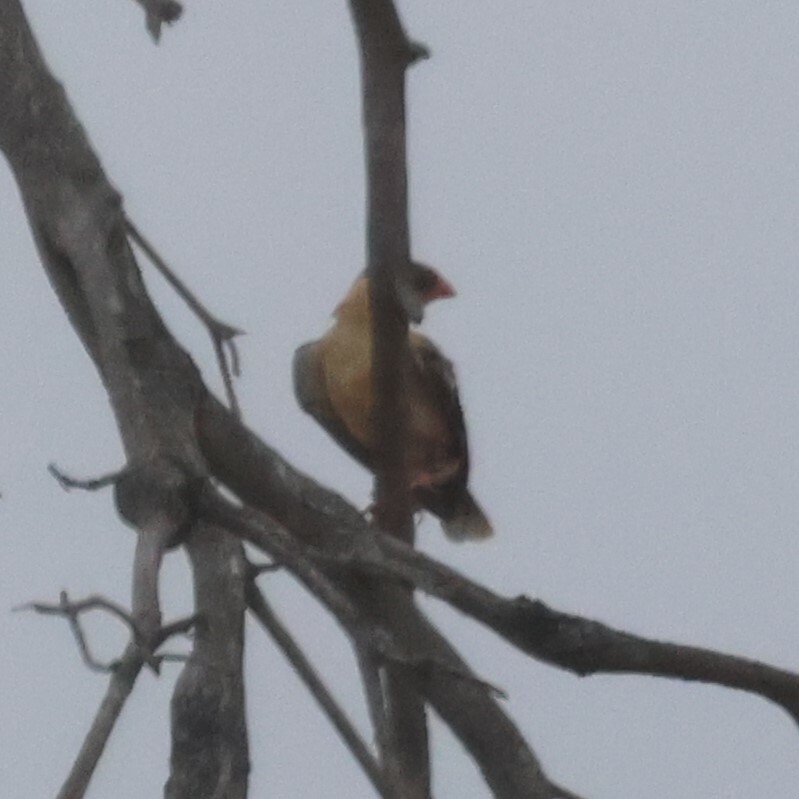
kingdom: Animalia
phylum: Chordata
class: Aves
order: Passeriformes
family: Viduidae
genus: Vidua
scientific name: Vidua regia
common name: Shaft-tailed whydah
